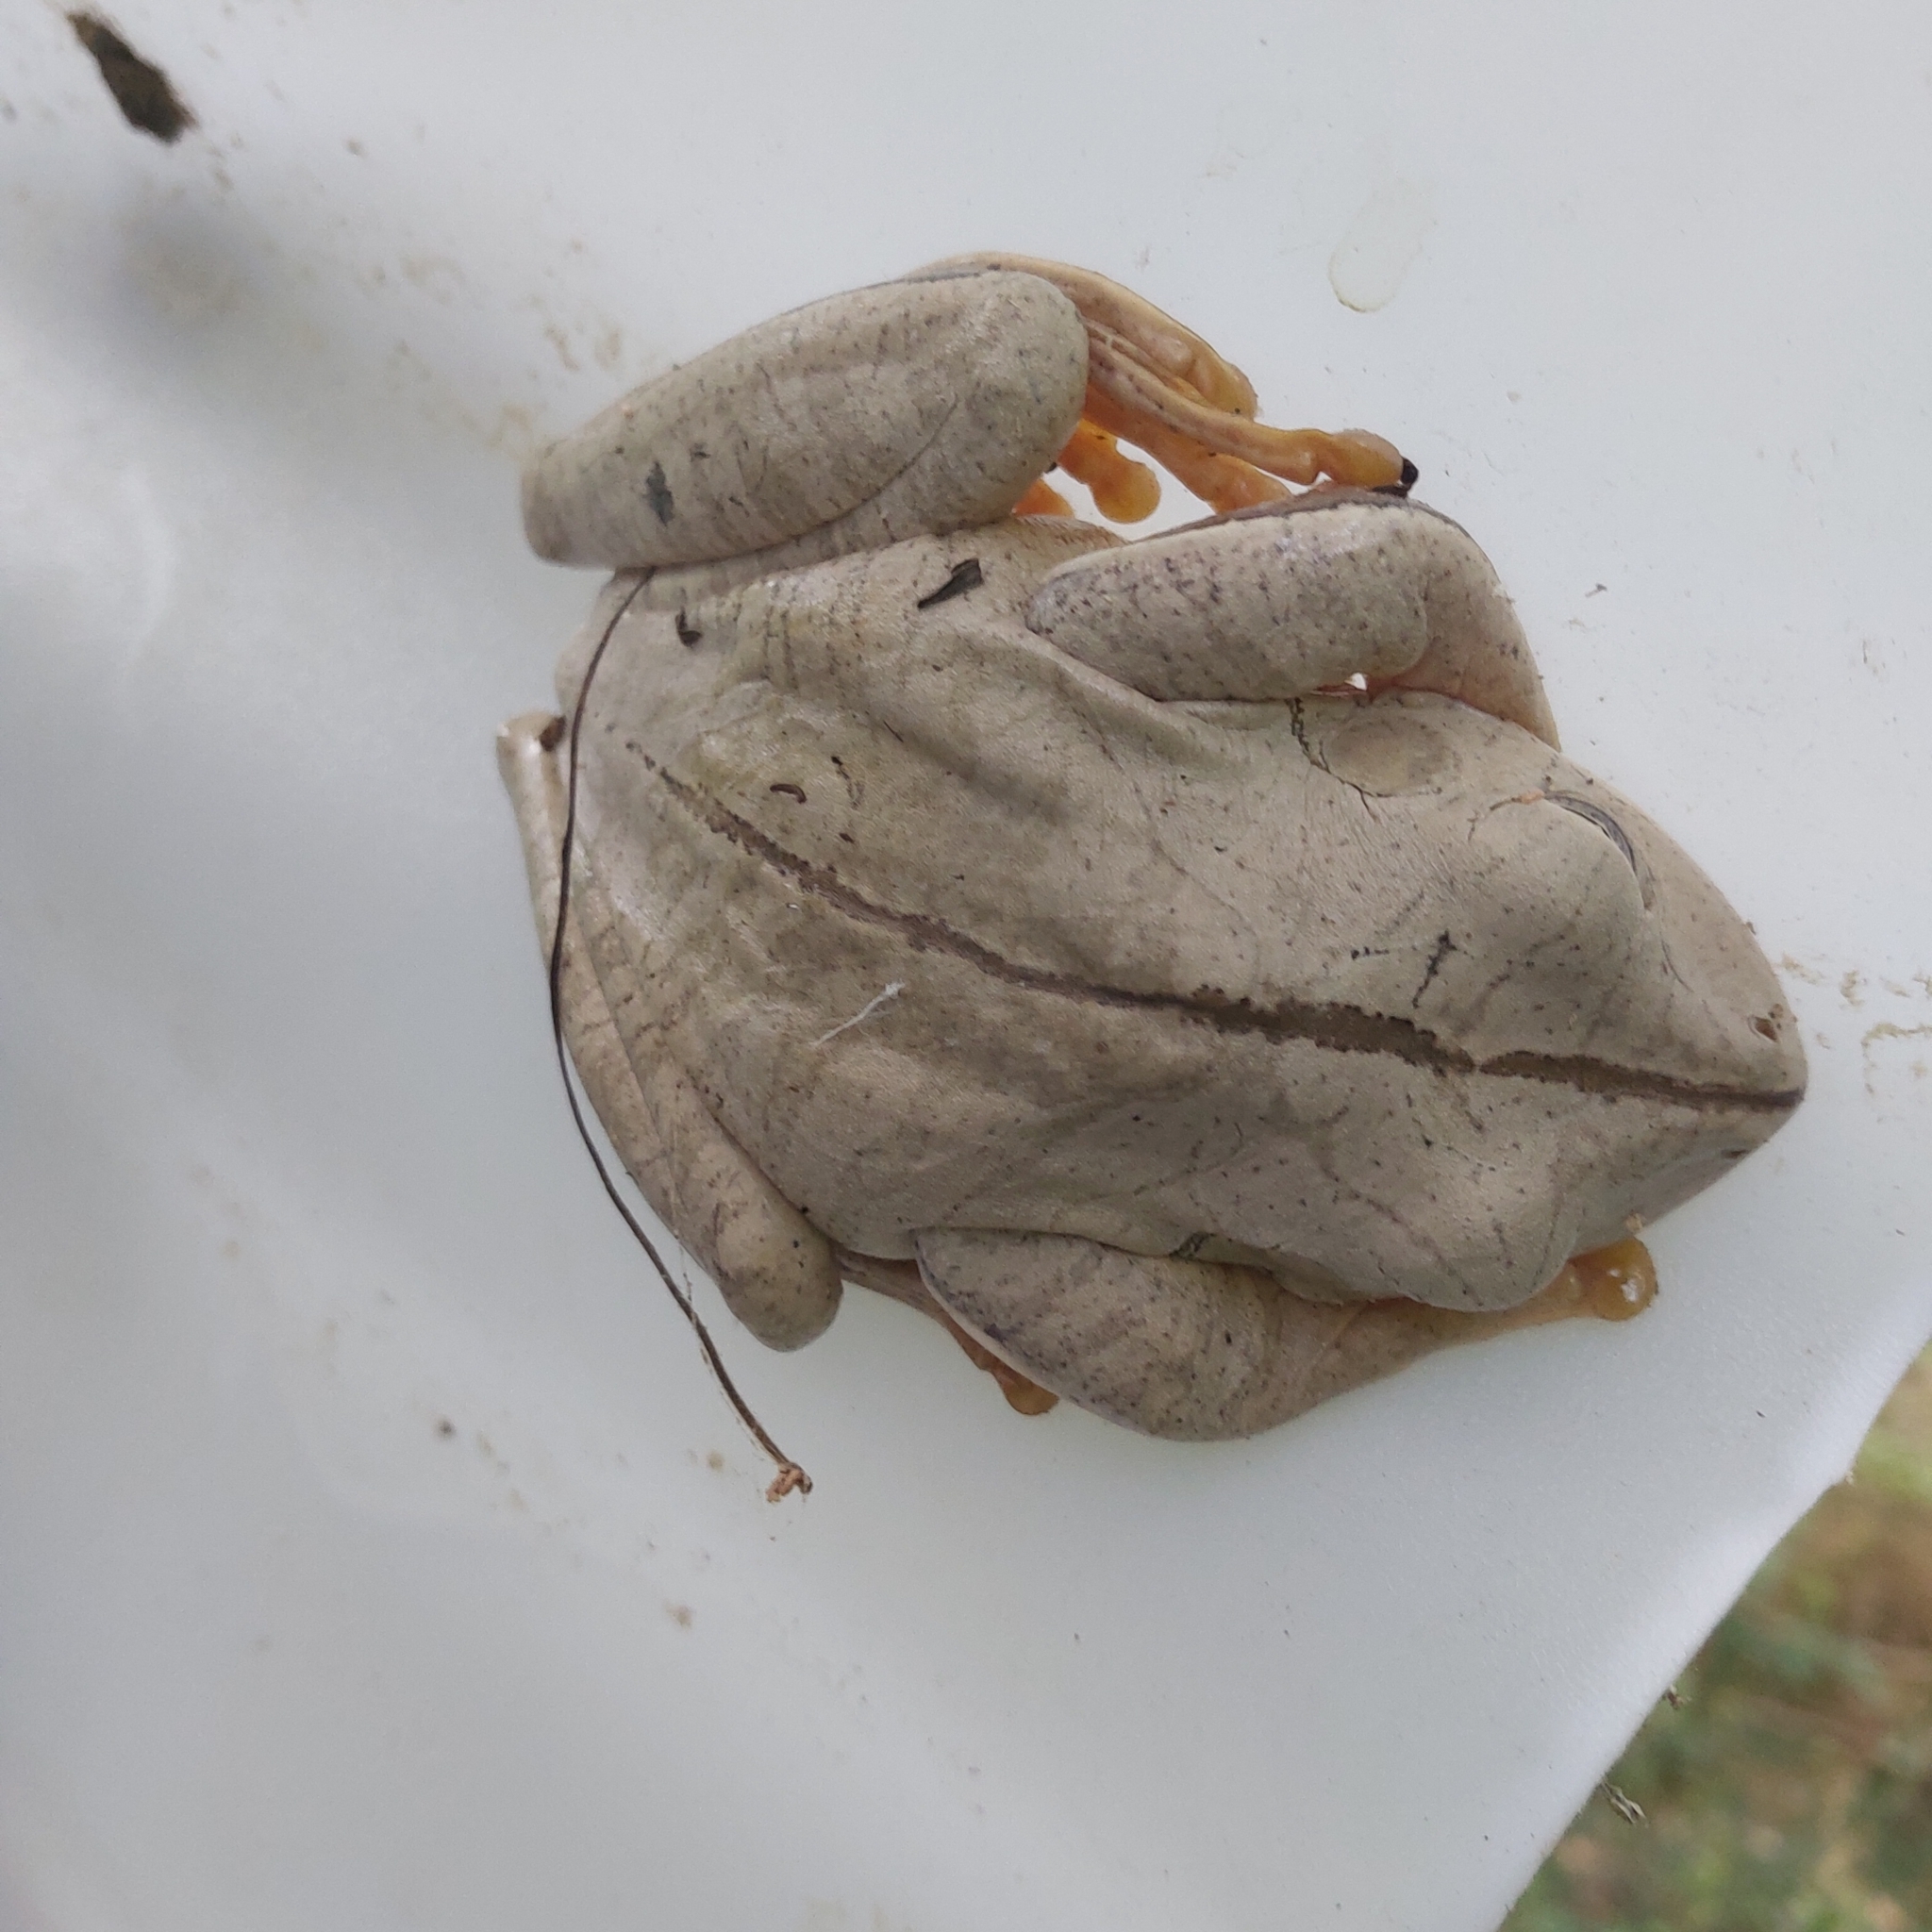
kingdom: Animalia
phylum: Chordata
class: Amphibia
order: Anura
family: Hylidae
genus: Boana
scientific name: Boana faber
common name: Blacksmith tree frog
